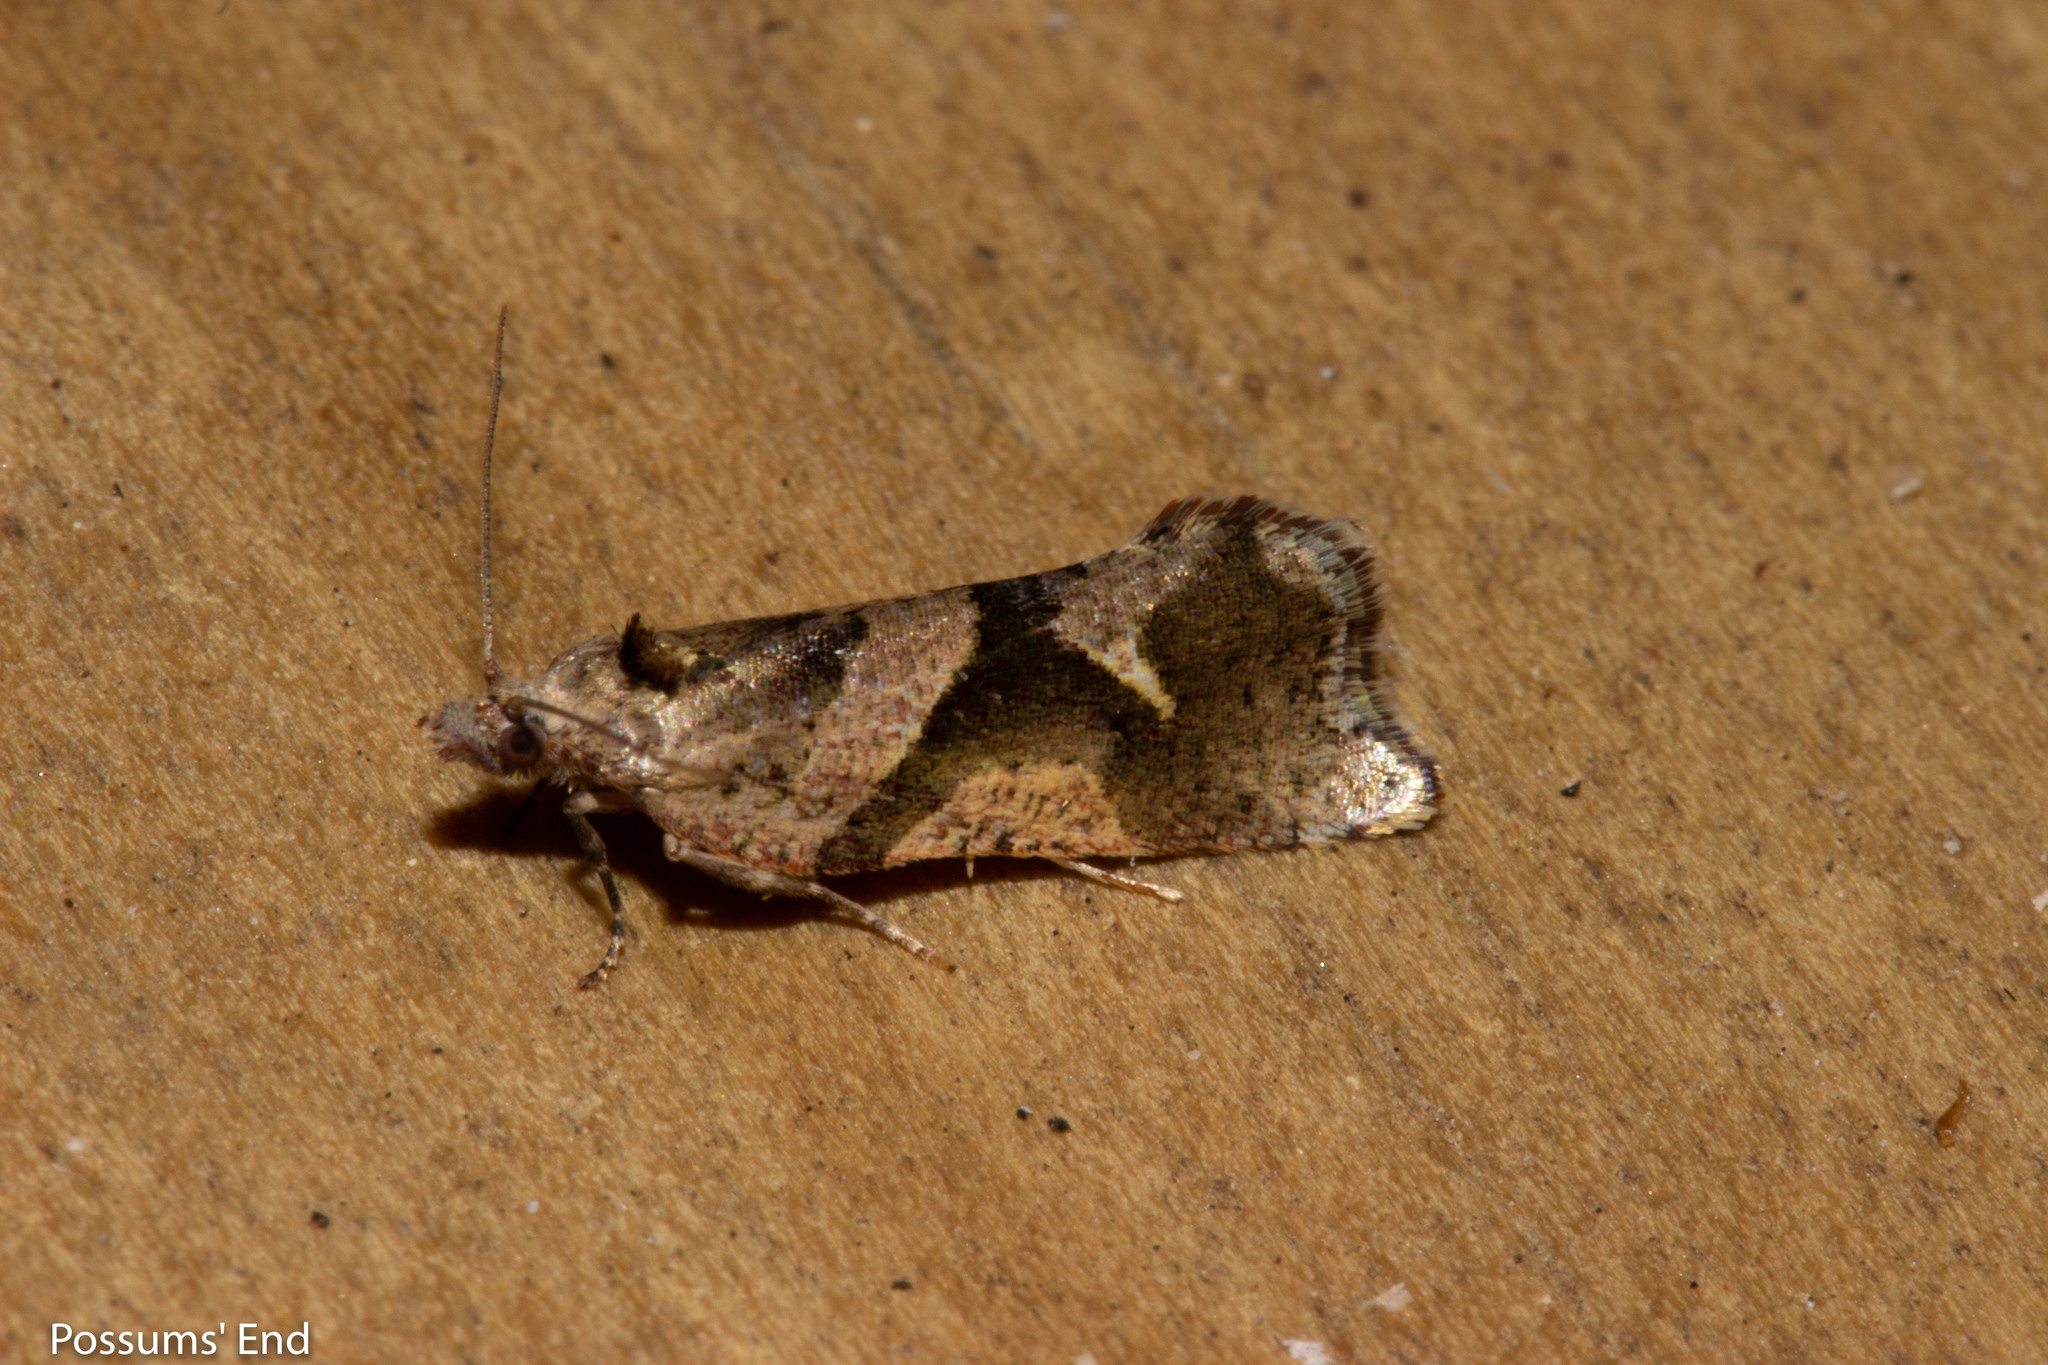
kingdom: Animalia
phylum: Arthropoda
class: Insecta
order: Lepidoptera
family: Tortricidae
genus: Pyrgotis
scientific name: Pyrgotis plagiatana
